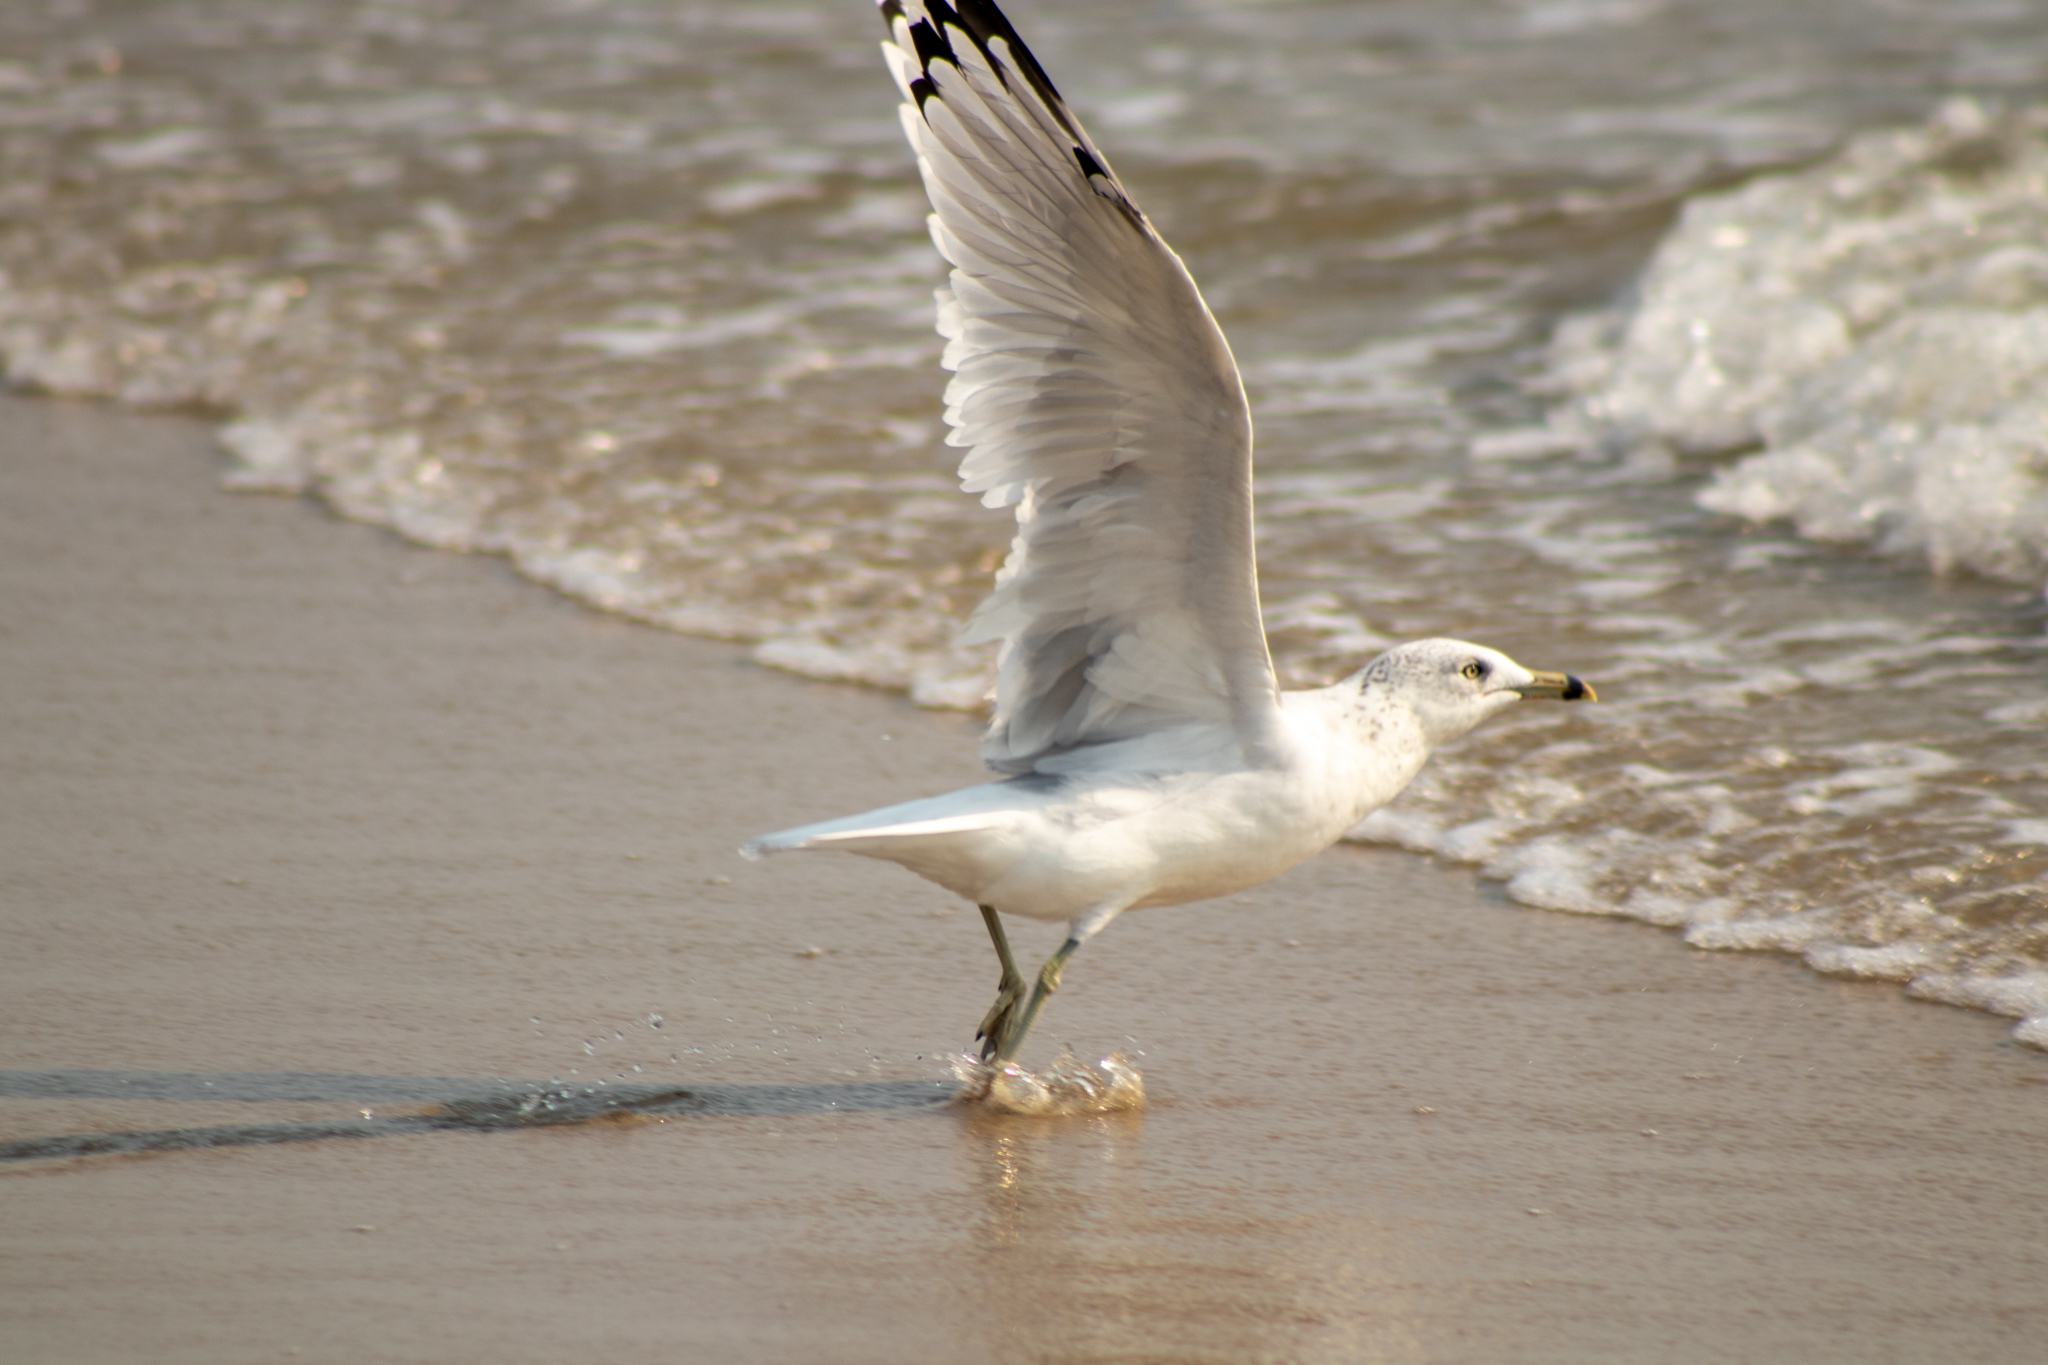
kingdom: Animalia
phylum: Chordata
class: Aves
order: Charadriiformes
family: Laridae
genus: Larus
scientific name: Larus delawarensis
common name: Ring-billed gull
